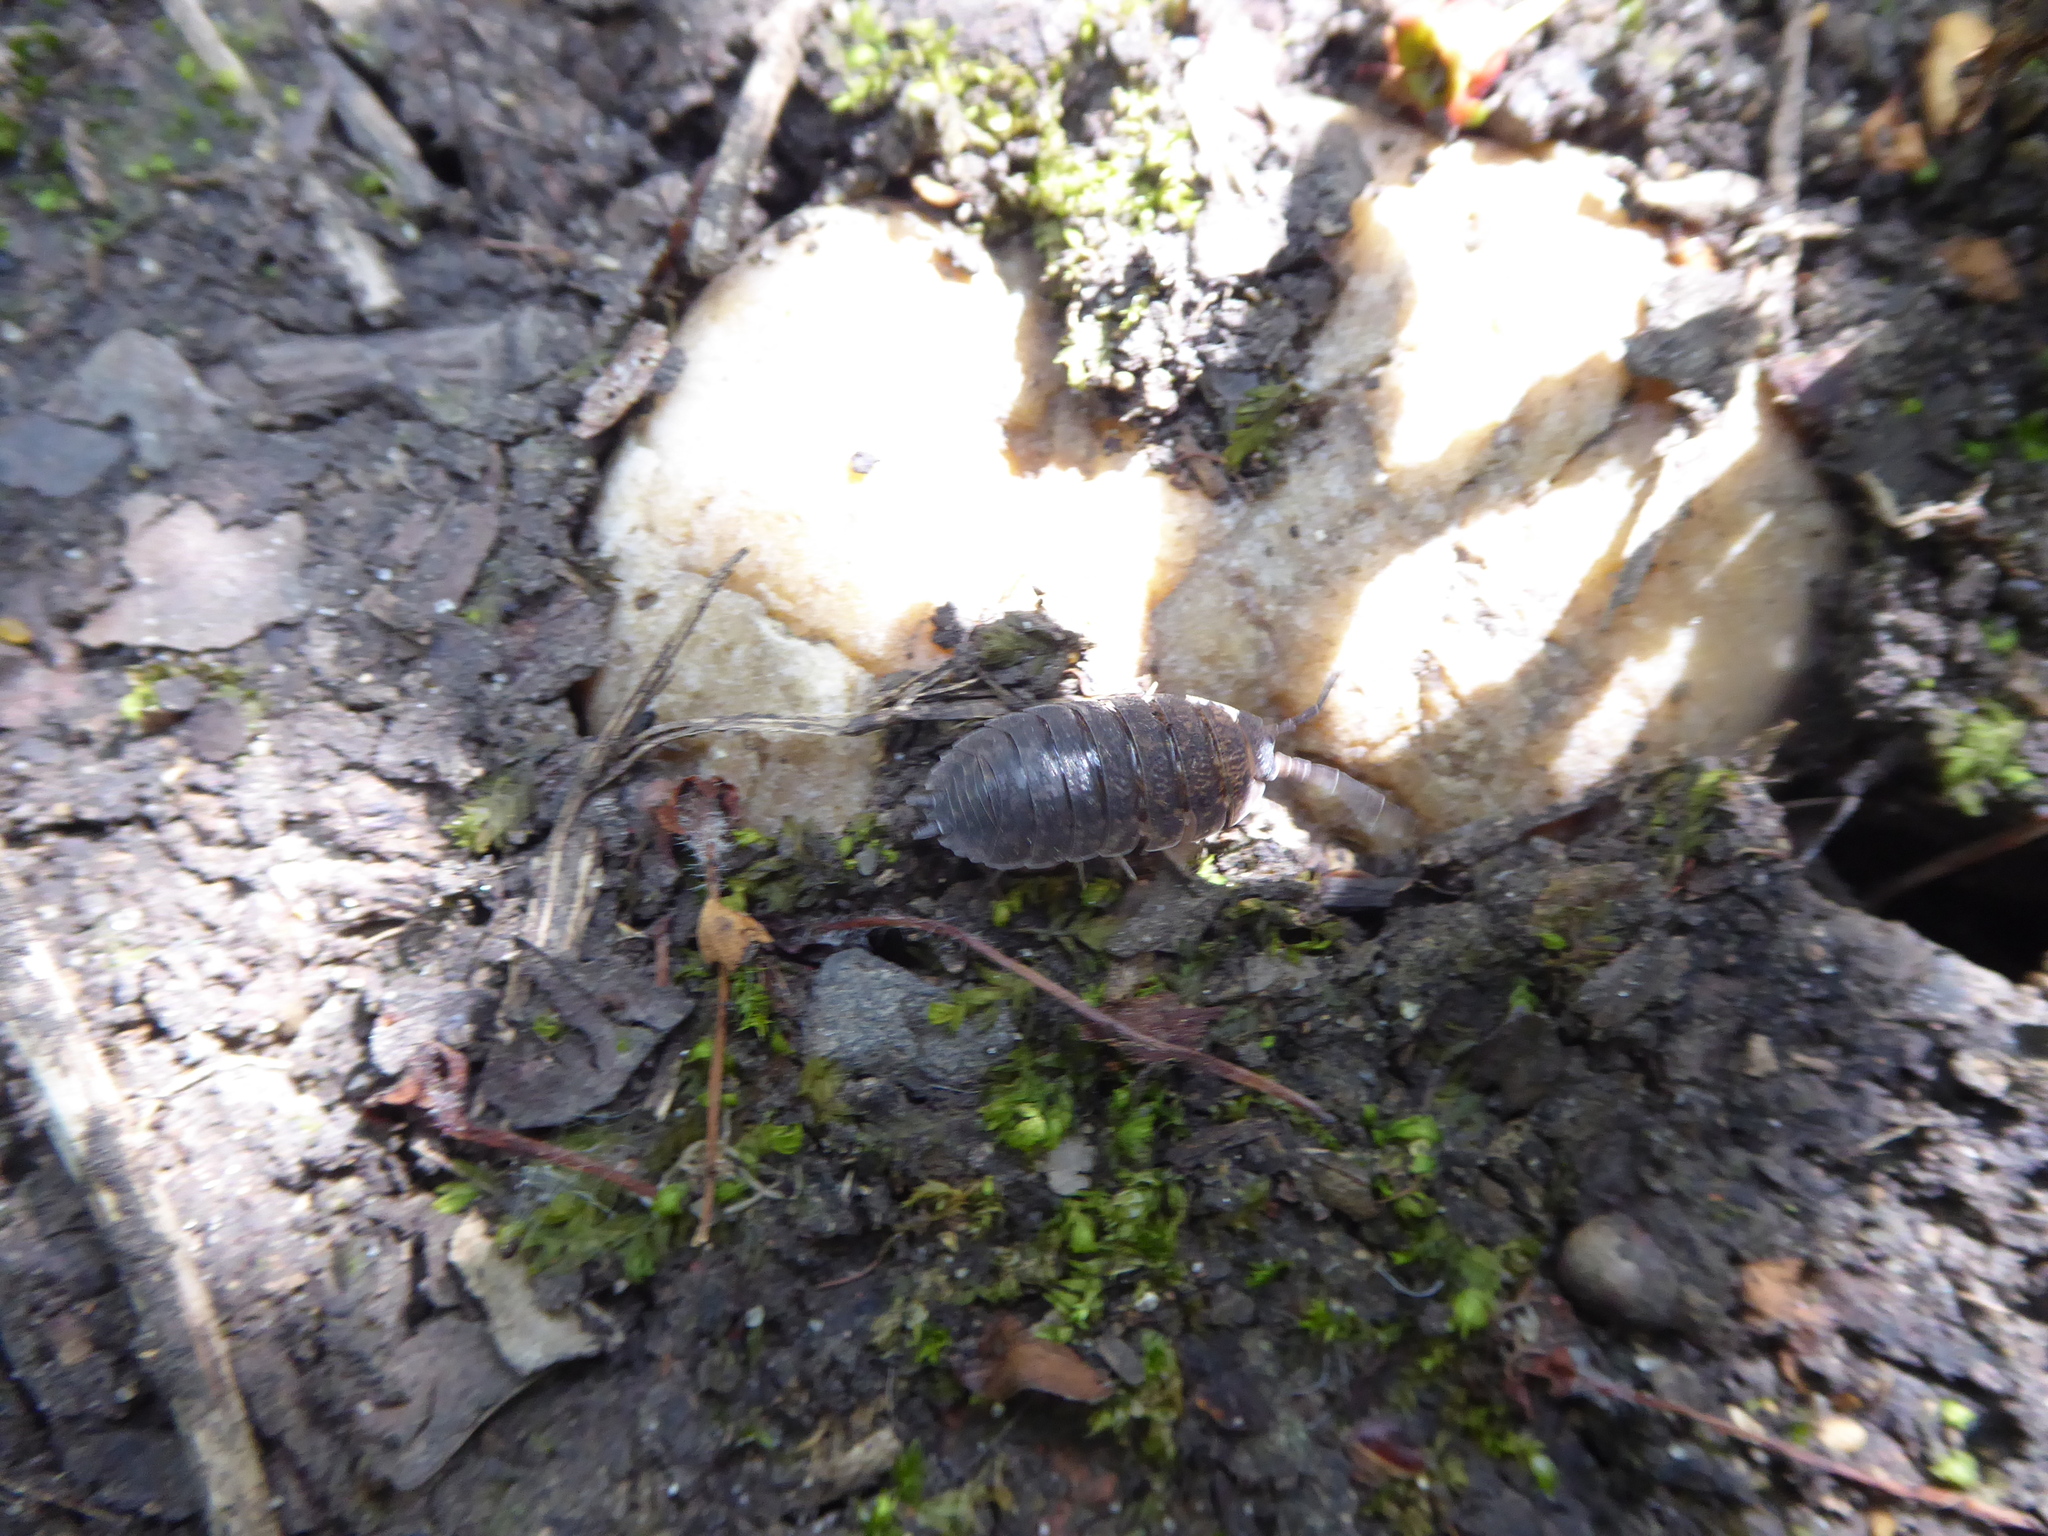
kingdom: Animalia
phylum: Arthropoda
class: Malacostraca
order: Isopoda
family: Porcellionidae
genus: Porcellio
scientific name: Porcellio scaber
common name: Common rough woodlouse
